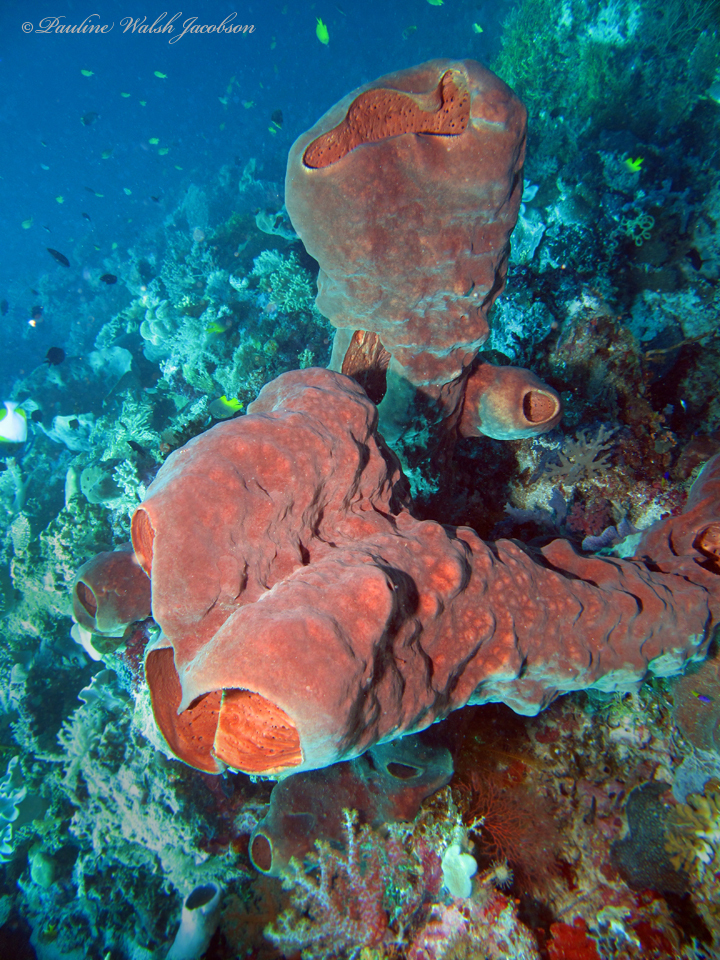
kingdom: Animalia
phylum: Porifera
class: Demospongiae
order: Haplosclerida
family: Petrosiidae
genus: Petrosia
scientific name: Petrosia plana
